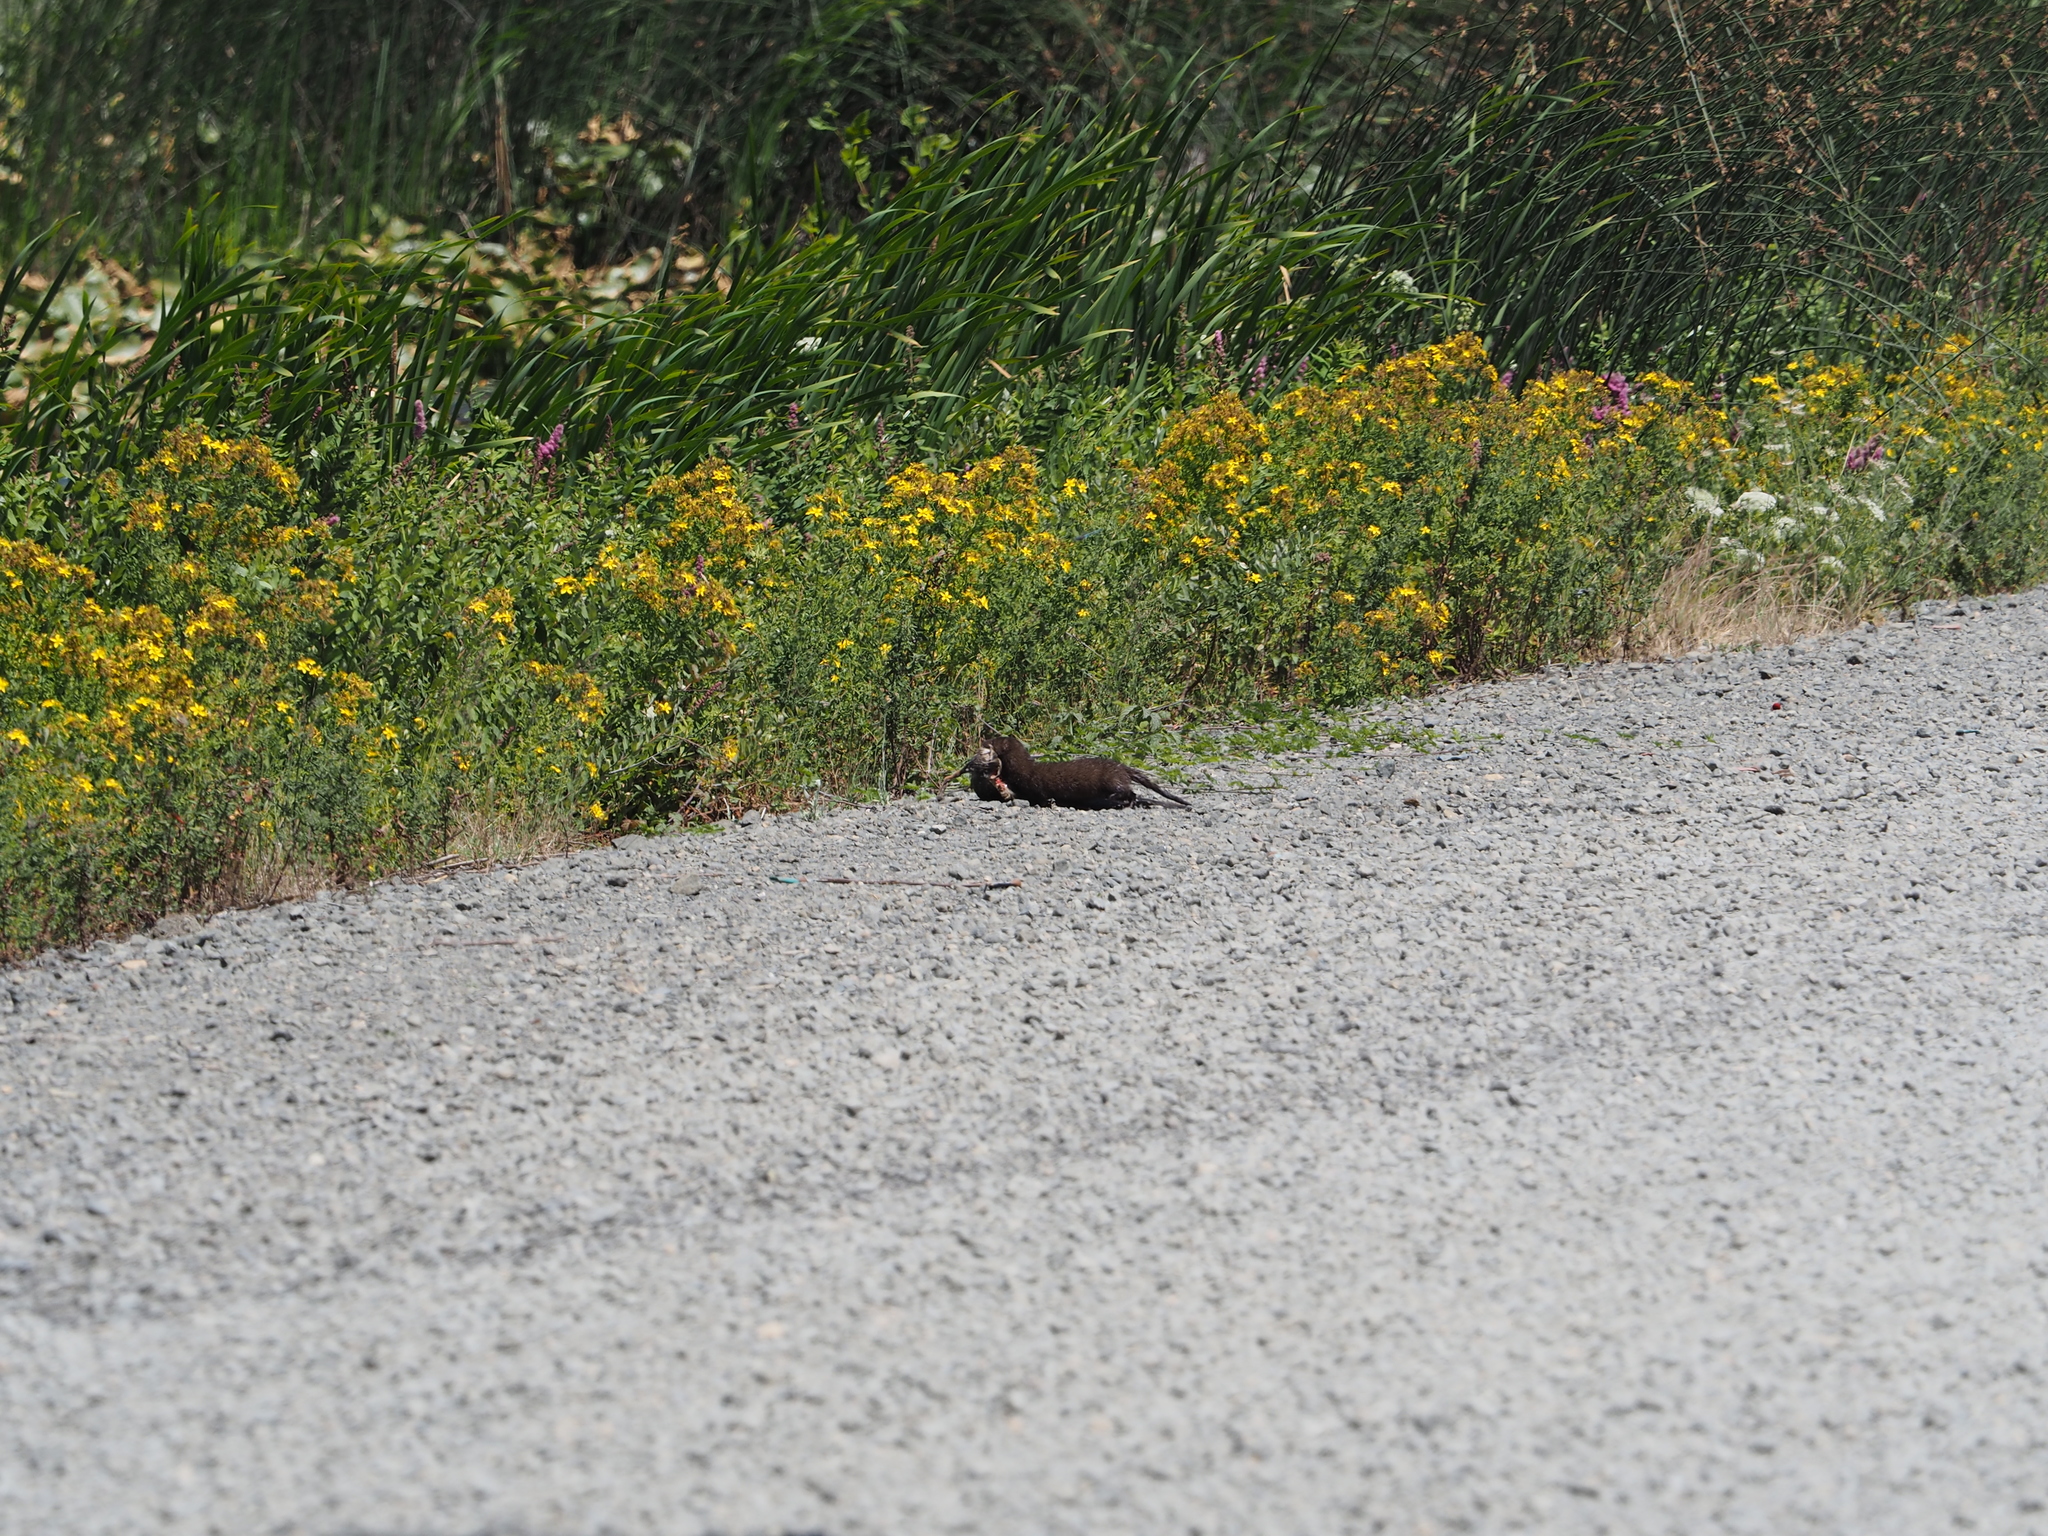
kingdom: Animalia
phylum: Chordata
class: Mammalia
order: Carnivora
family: Mustelidae
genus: Mustela
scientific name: Mustela
